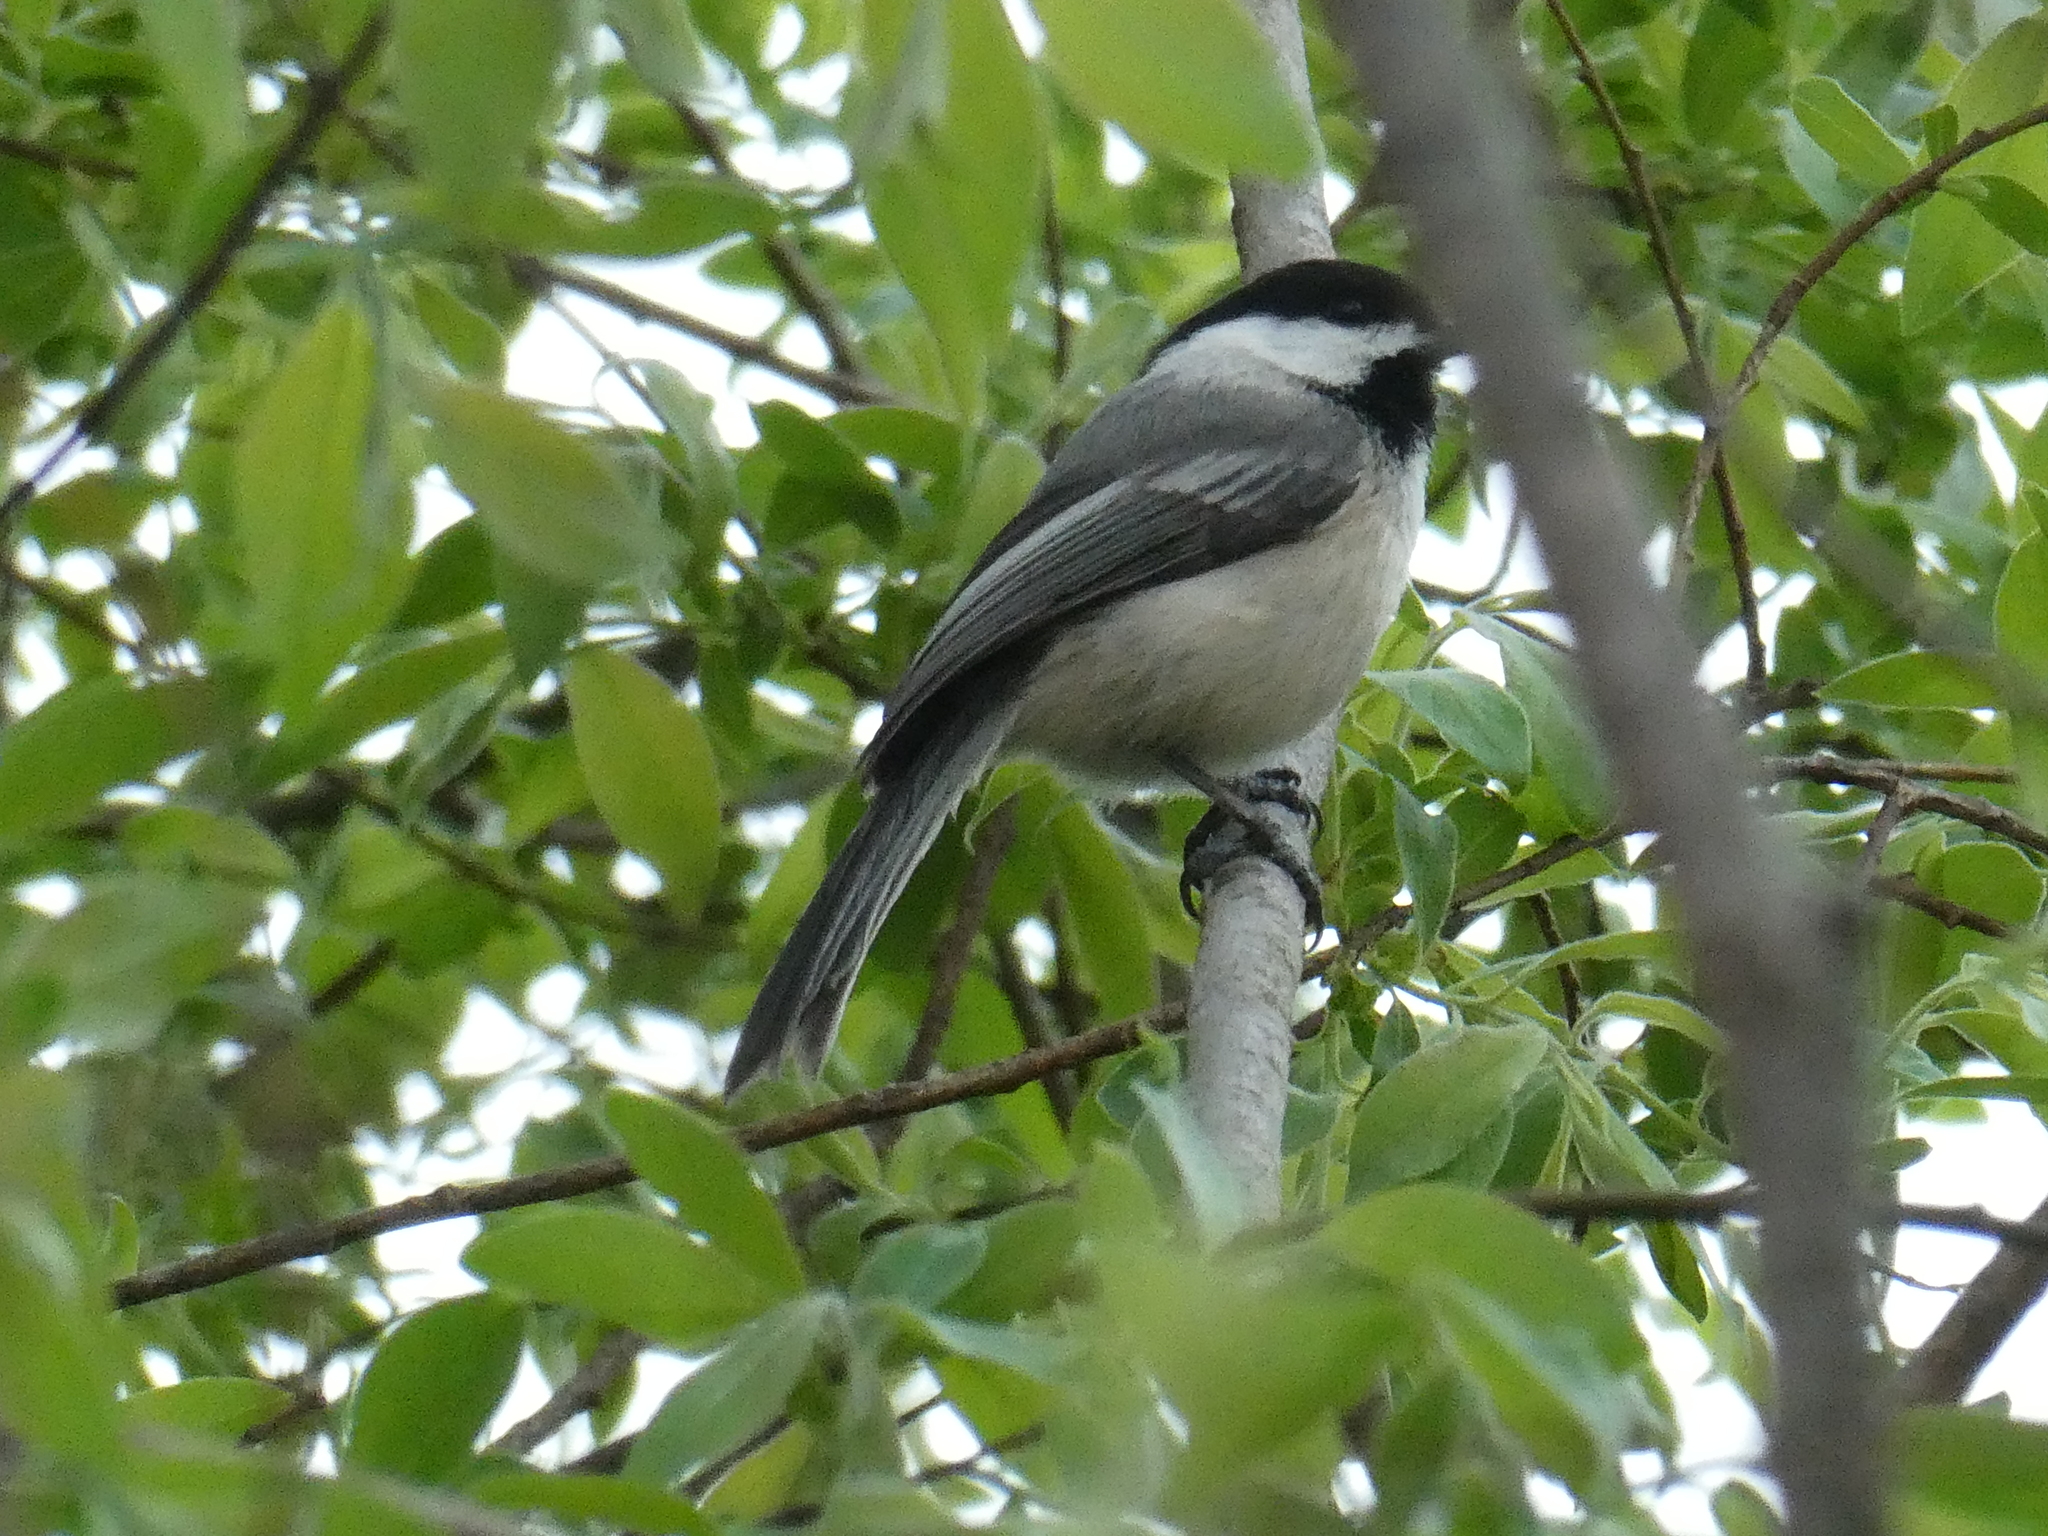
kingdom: Animalia
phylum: Chordata
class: Aves
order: Passeriformes
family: Paridae
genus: Poecile
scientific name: Poecile atricapillus
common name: Black-capped chickadee
